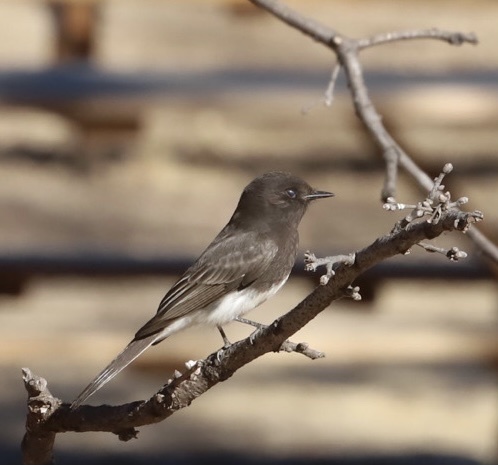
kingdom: Animalia
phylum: Chordata
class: Aves
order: Passeriformes
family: Tyrannidae
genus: Sayornis
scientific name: Sayornis nigricans
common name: Black phoebe
